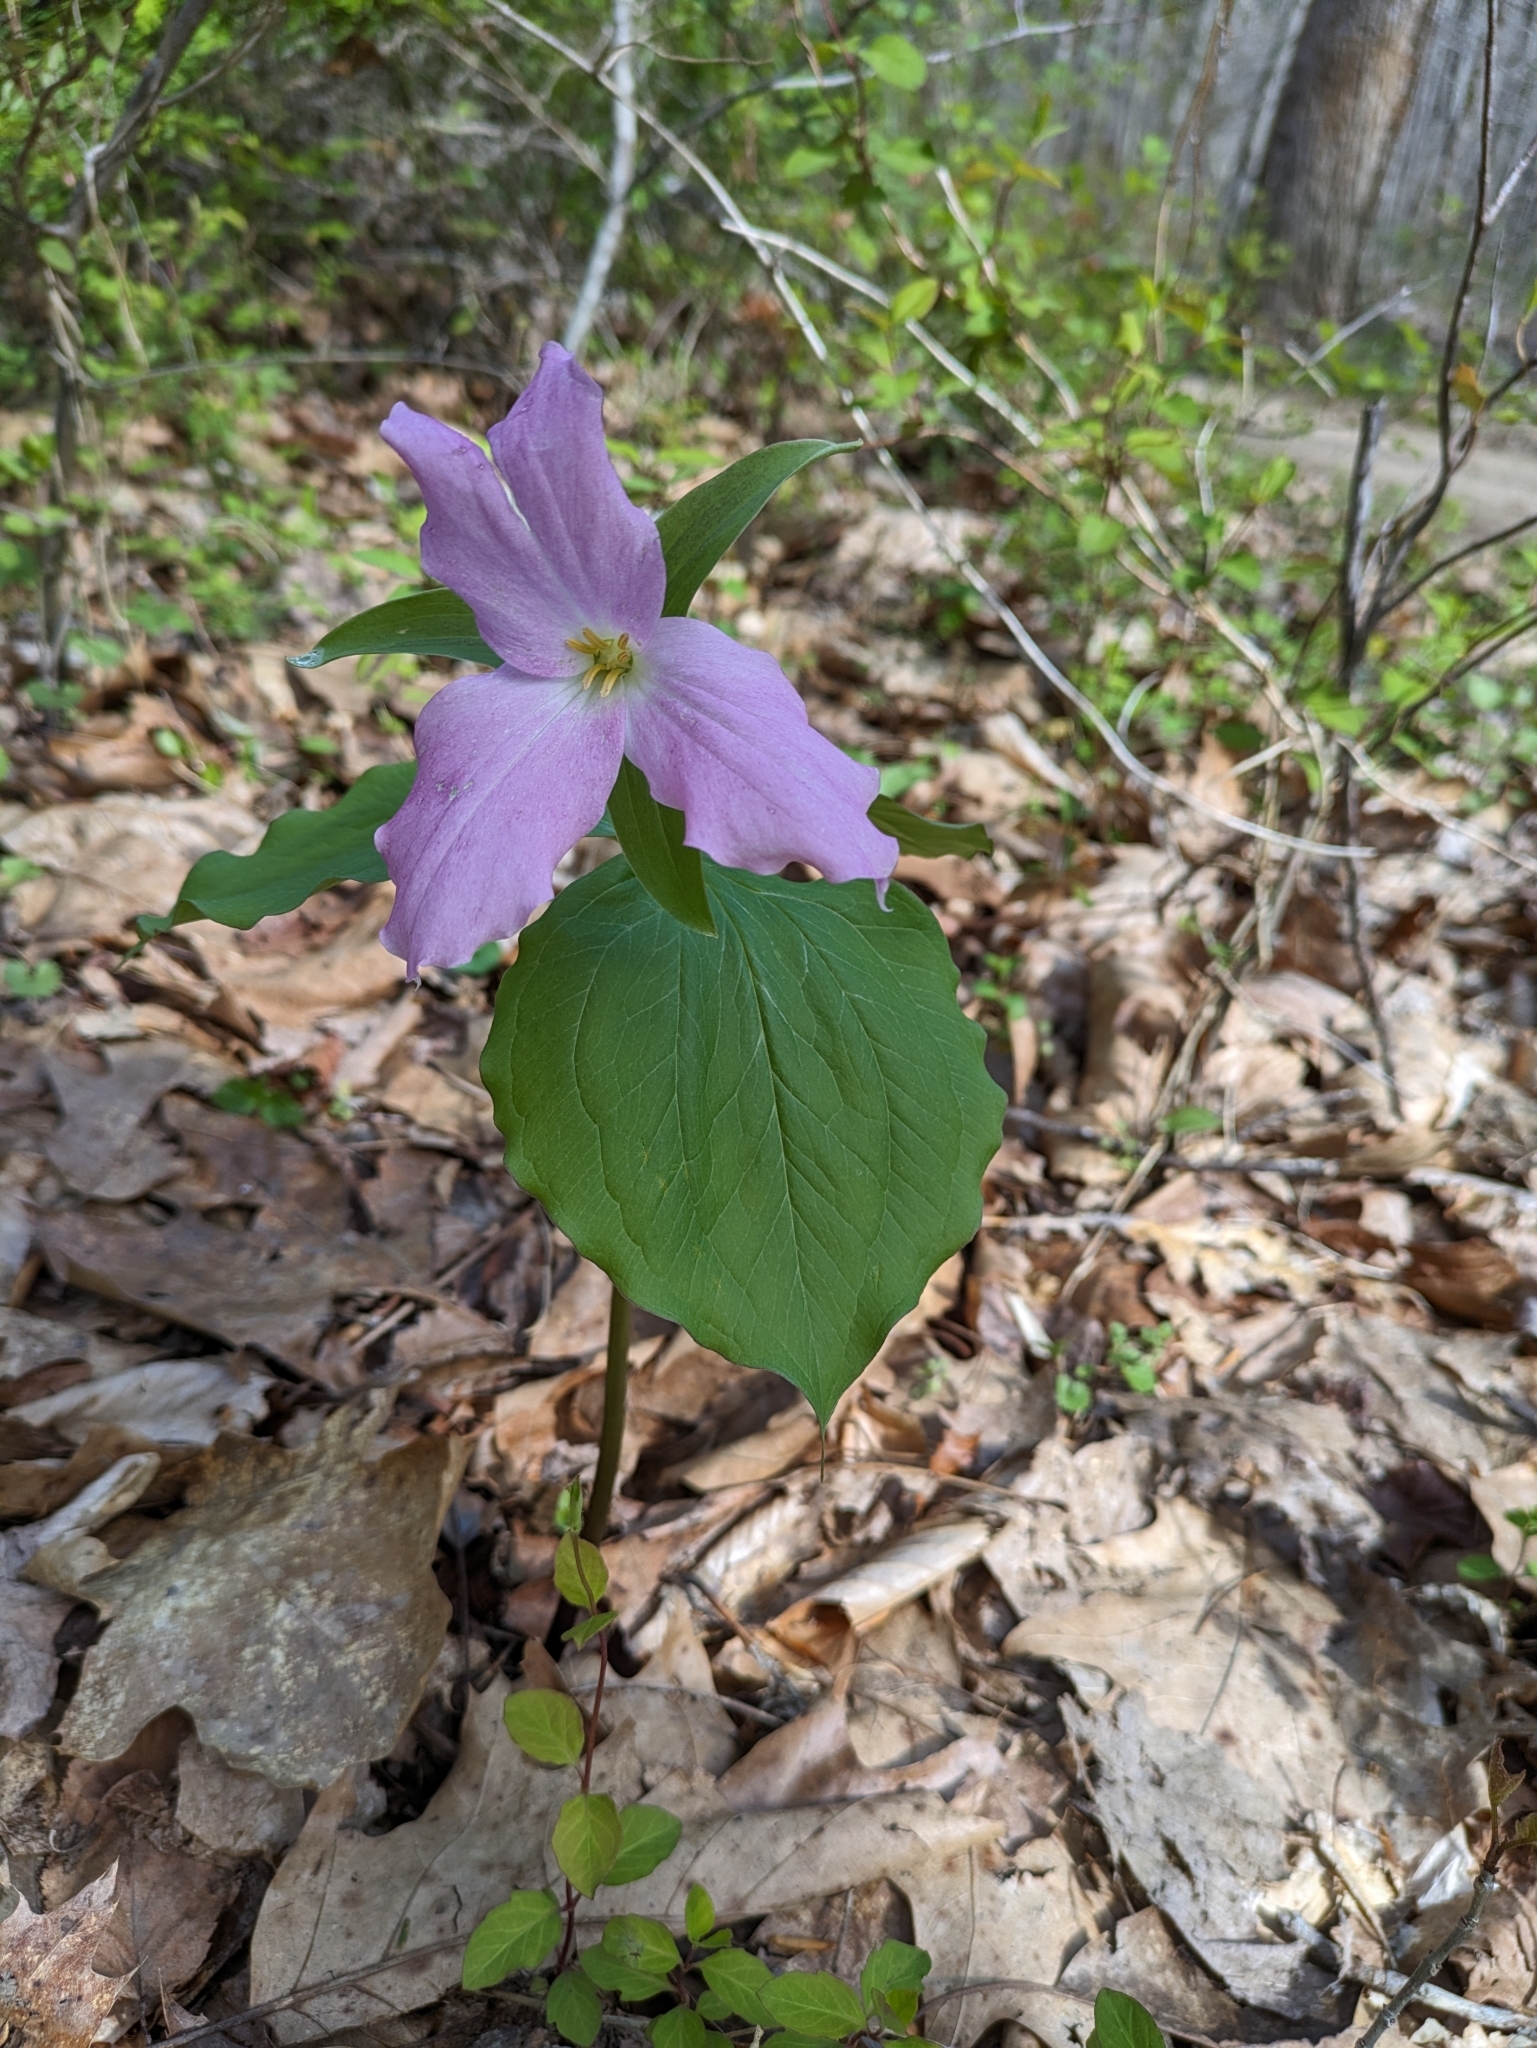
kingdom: Plantae
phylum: Tracheophyta
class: Liliopsida
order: Liliales
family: Melanthiaceae
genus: Trillium
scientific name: Trillium grandiflorum
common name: Great white trillium
